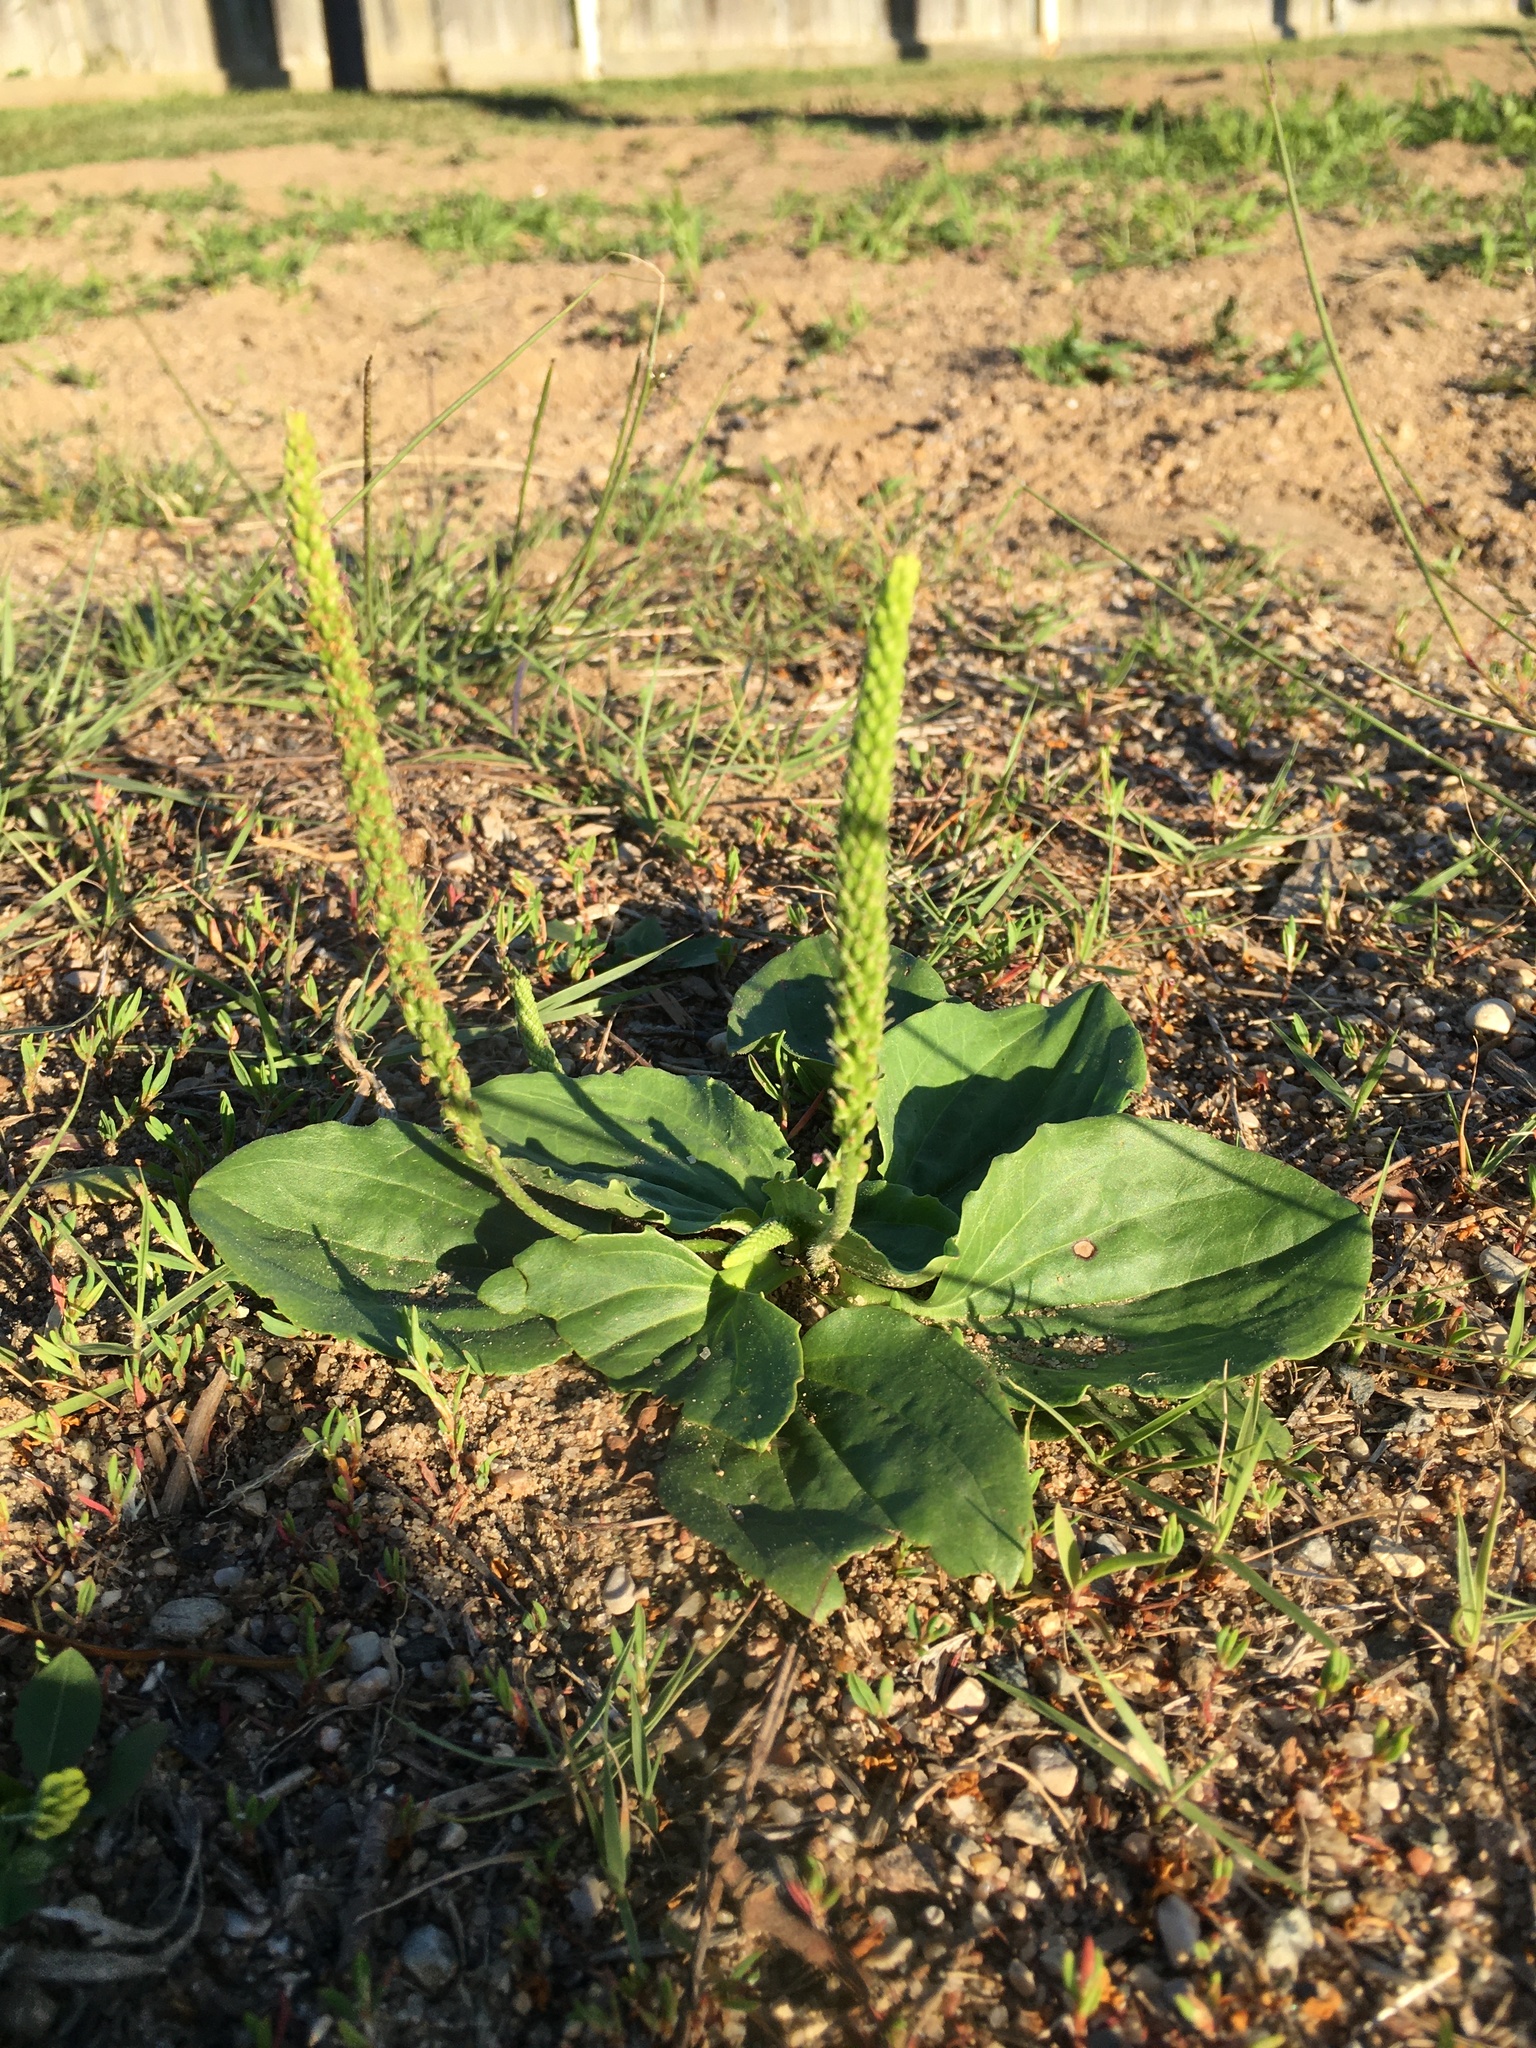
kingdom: Plantae
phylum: Tracheophyta
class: Magnoliopsida
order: Lamiales
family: Plantaginaceae
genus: Plantago
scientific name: Plantago major
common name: Common plantain
